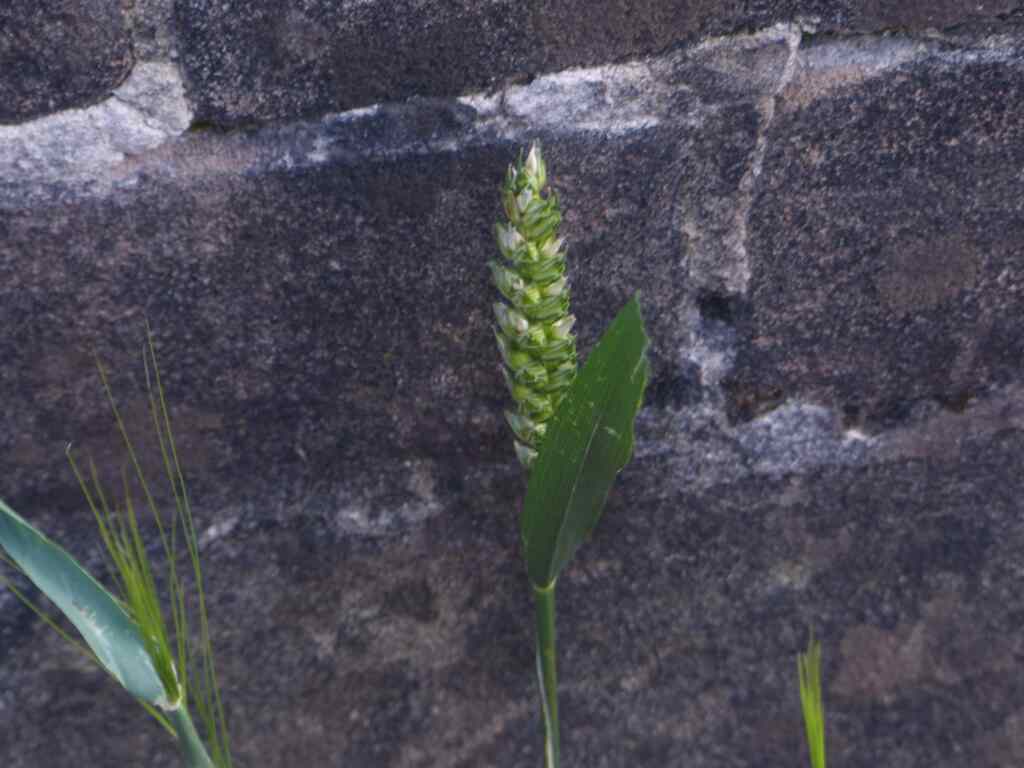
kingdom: Plantae
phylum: Tracheophyta
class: Liliopsida
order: Poales
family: Poaceae
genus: Triticum
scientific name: Triticum aestivum
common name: Common wheat
